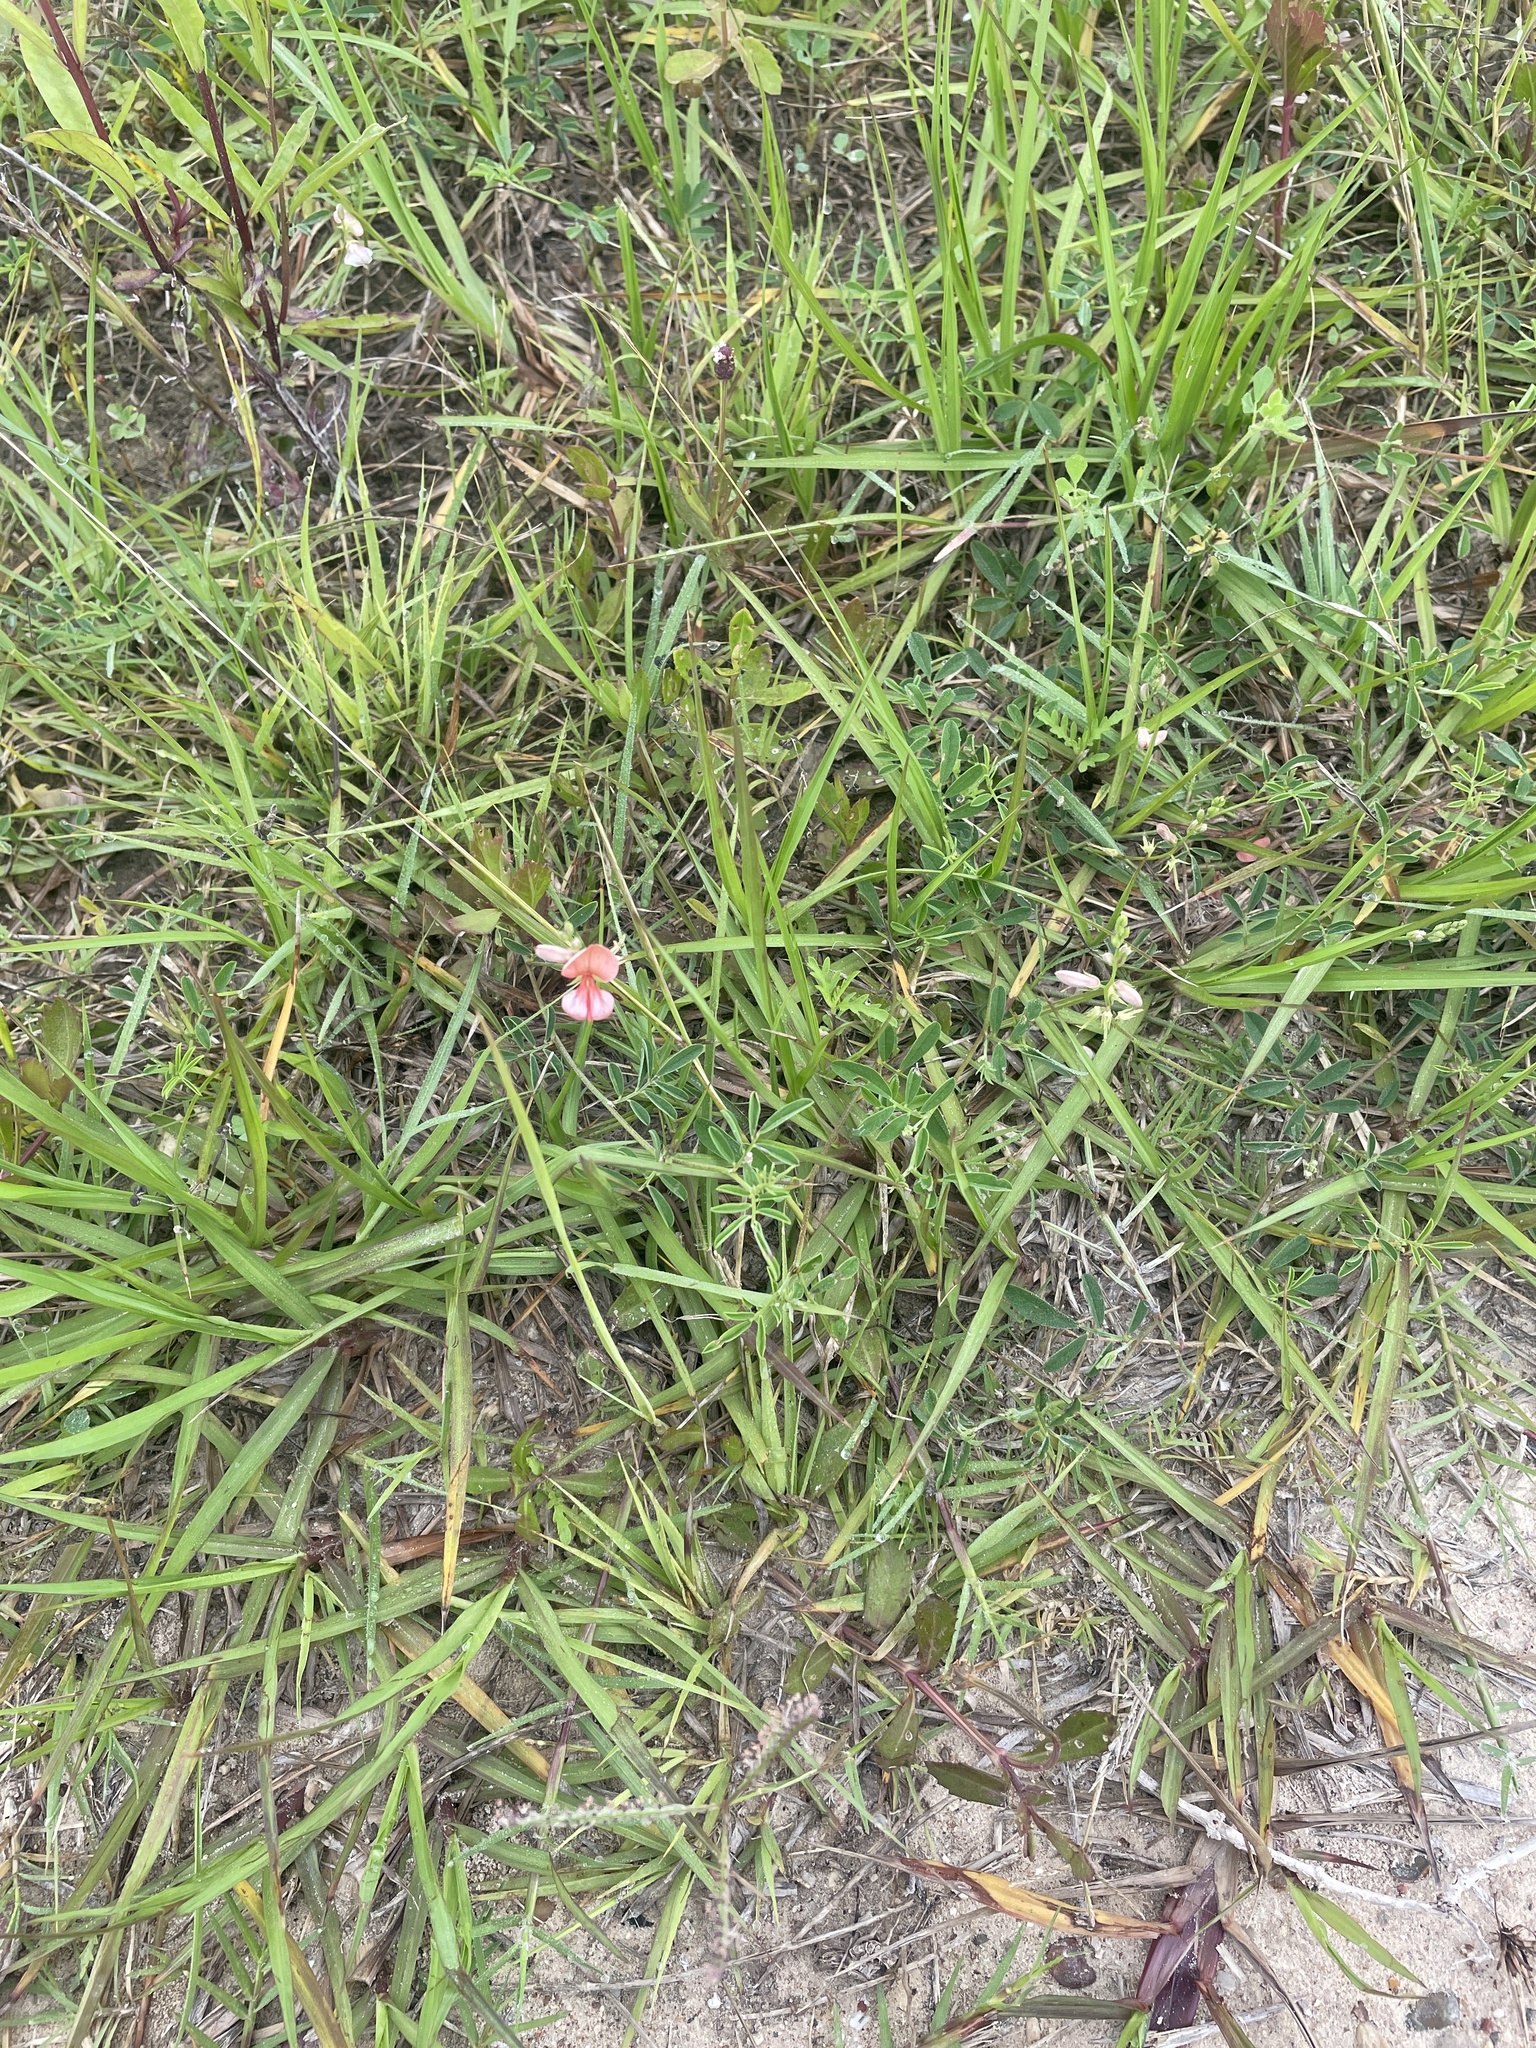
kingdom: Plantae
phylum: Tracheophyta
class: Magnoliopsida
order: Fabales
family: Fabaceae
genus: Indigofera
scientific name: Indigofera miniata
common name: Coast indigo
